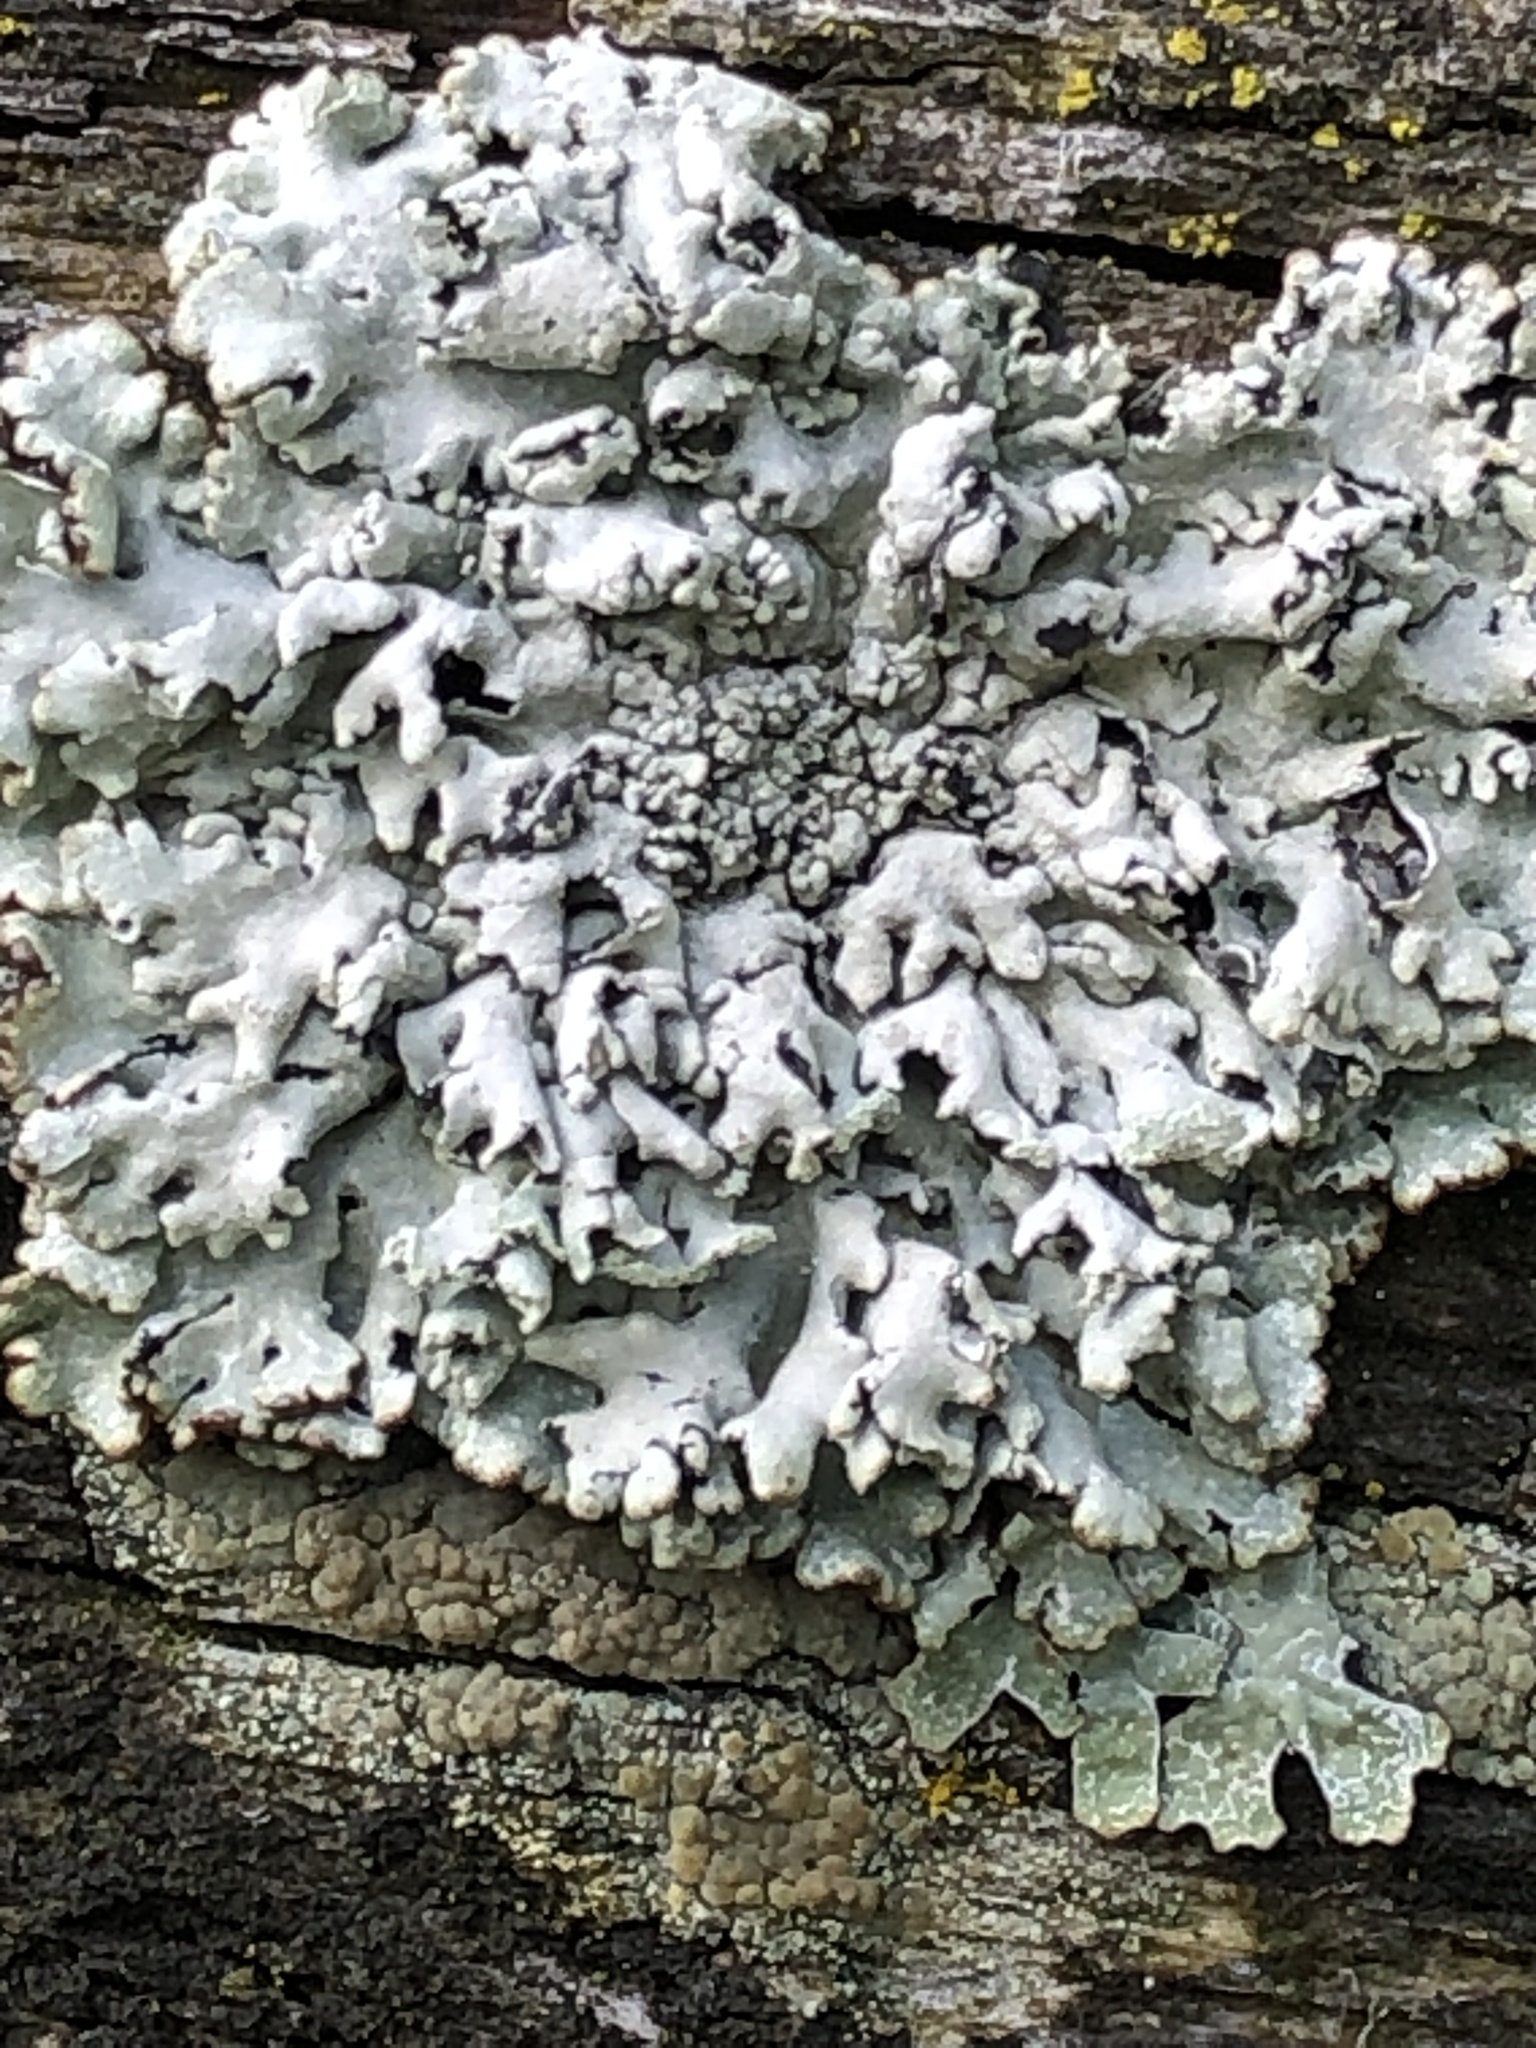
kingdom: Fungi
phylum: Ascomycota
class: Lecanoromycetes
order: Lecanorales
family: Parmeliaceae
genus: Hypogymnia
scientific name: Hypogymnia physodes
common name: Dark crottle
